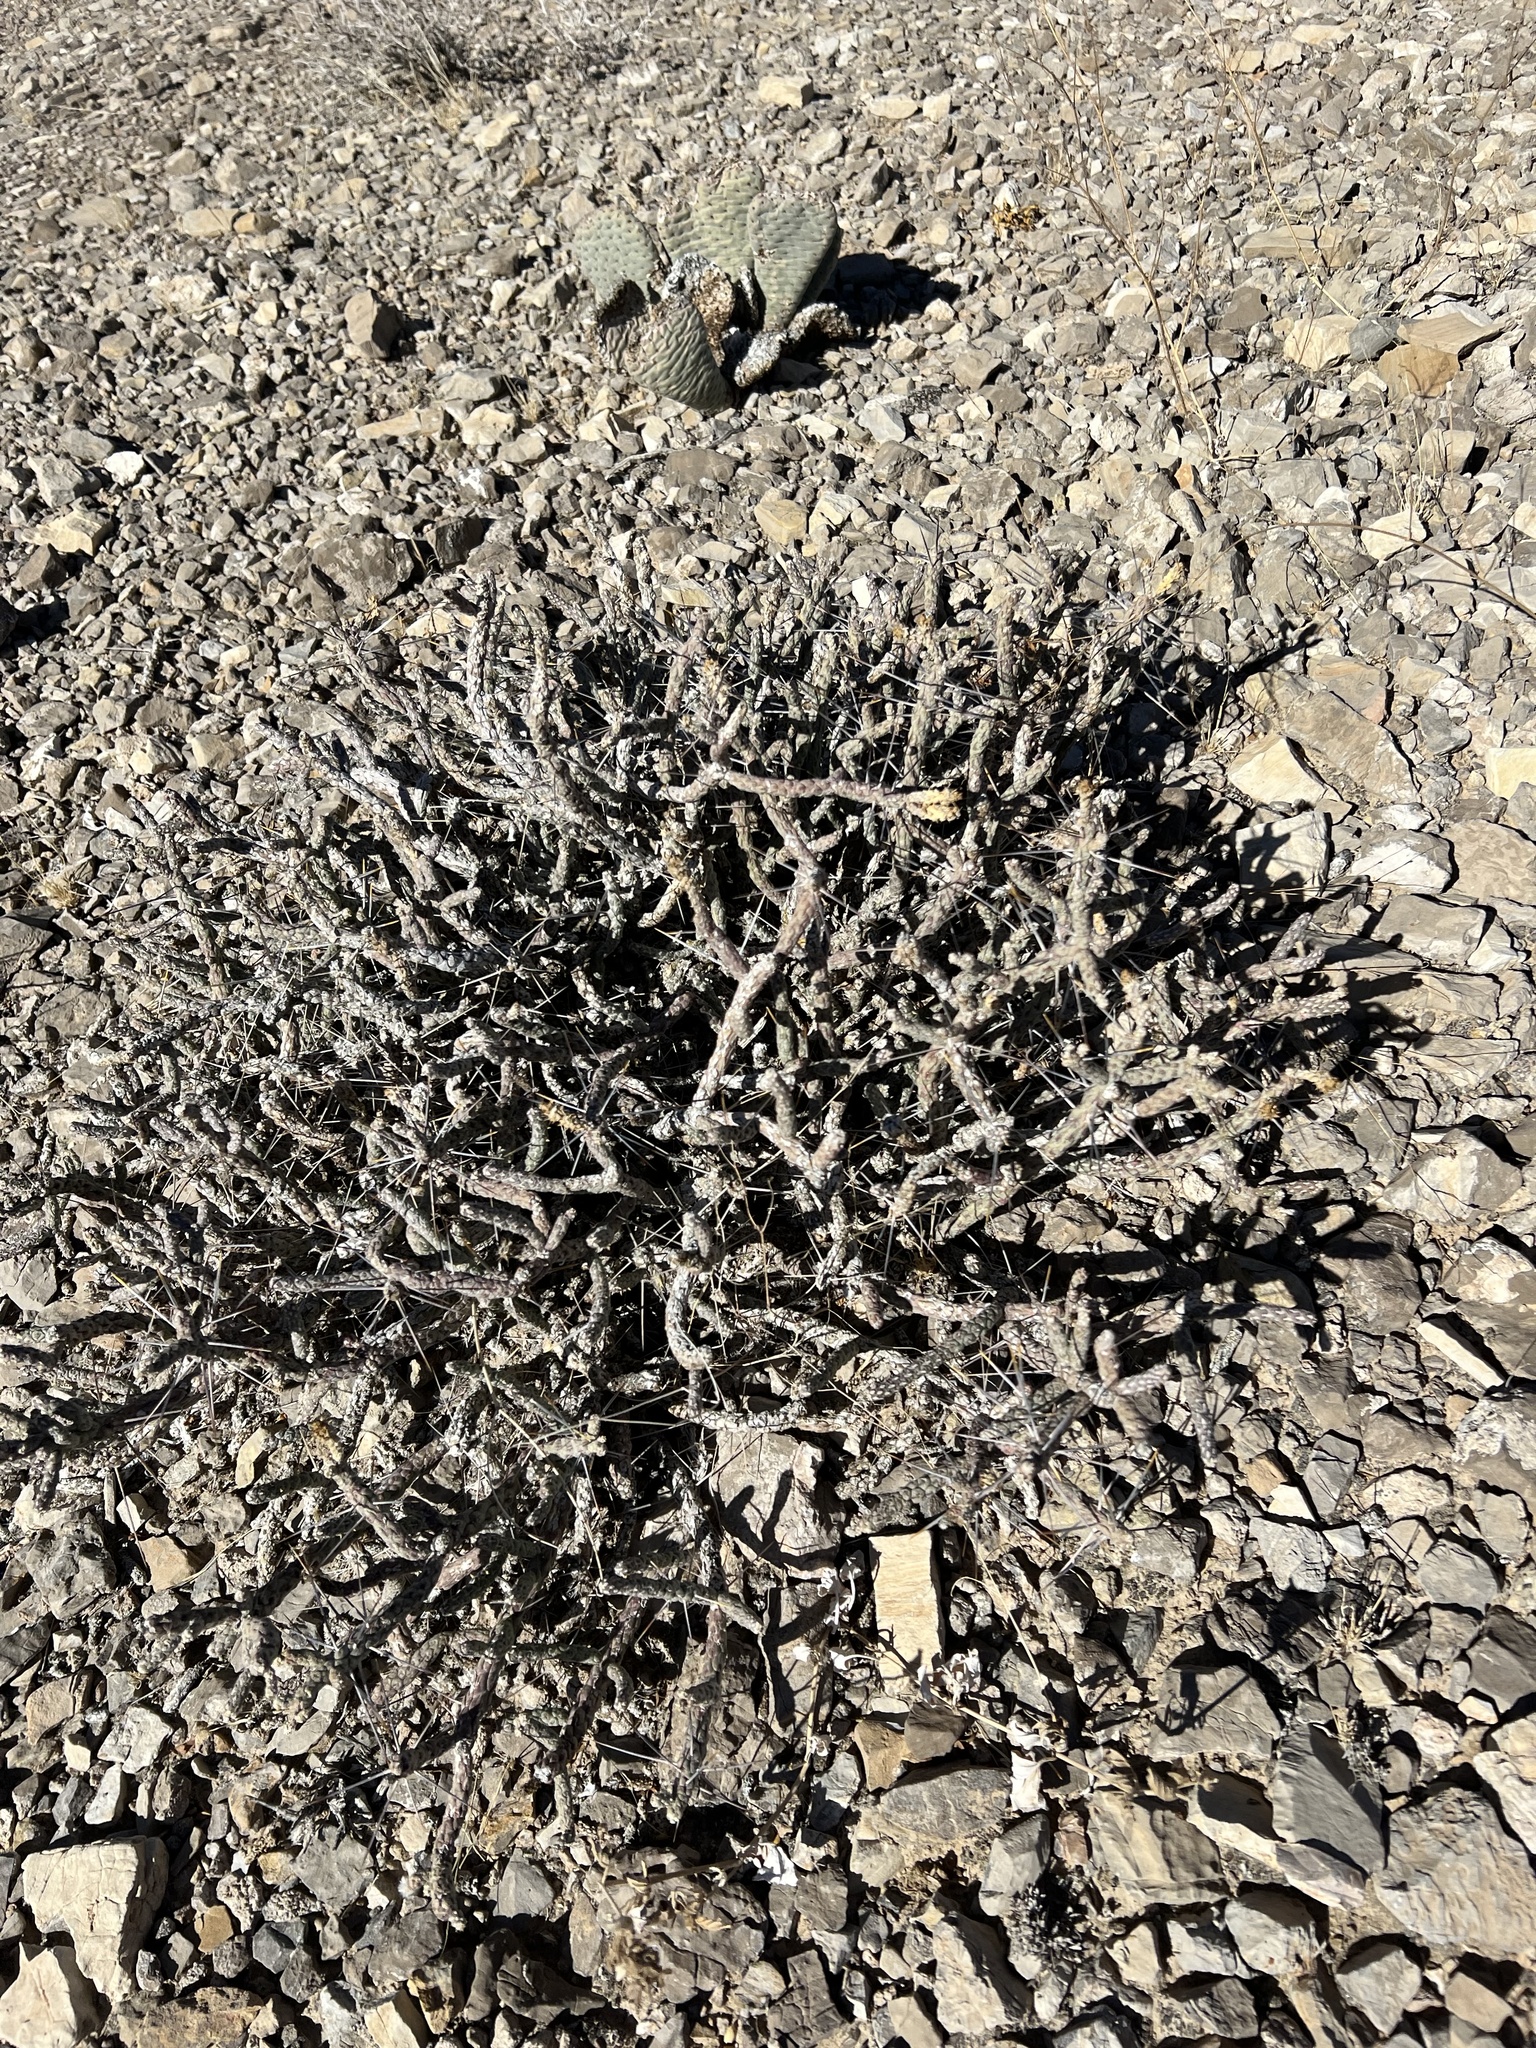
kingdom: Plantae
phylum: Tracheophyta
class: Magnoliopsida
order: Caryophyllales
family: Cactaceae
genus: Cylindropuntia
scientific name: Cylindropuntia ramosissima
